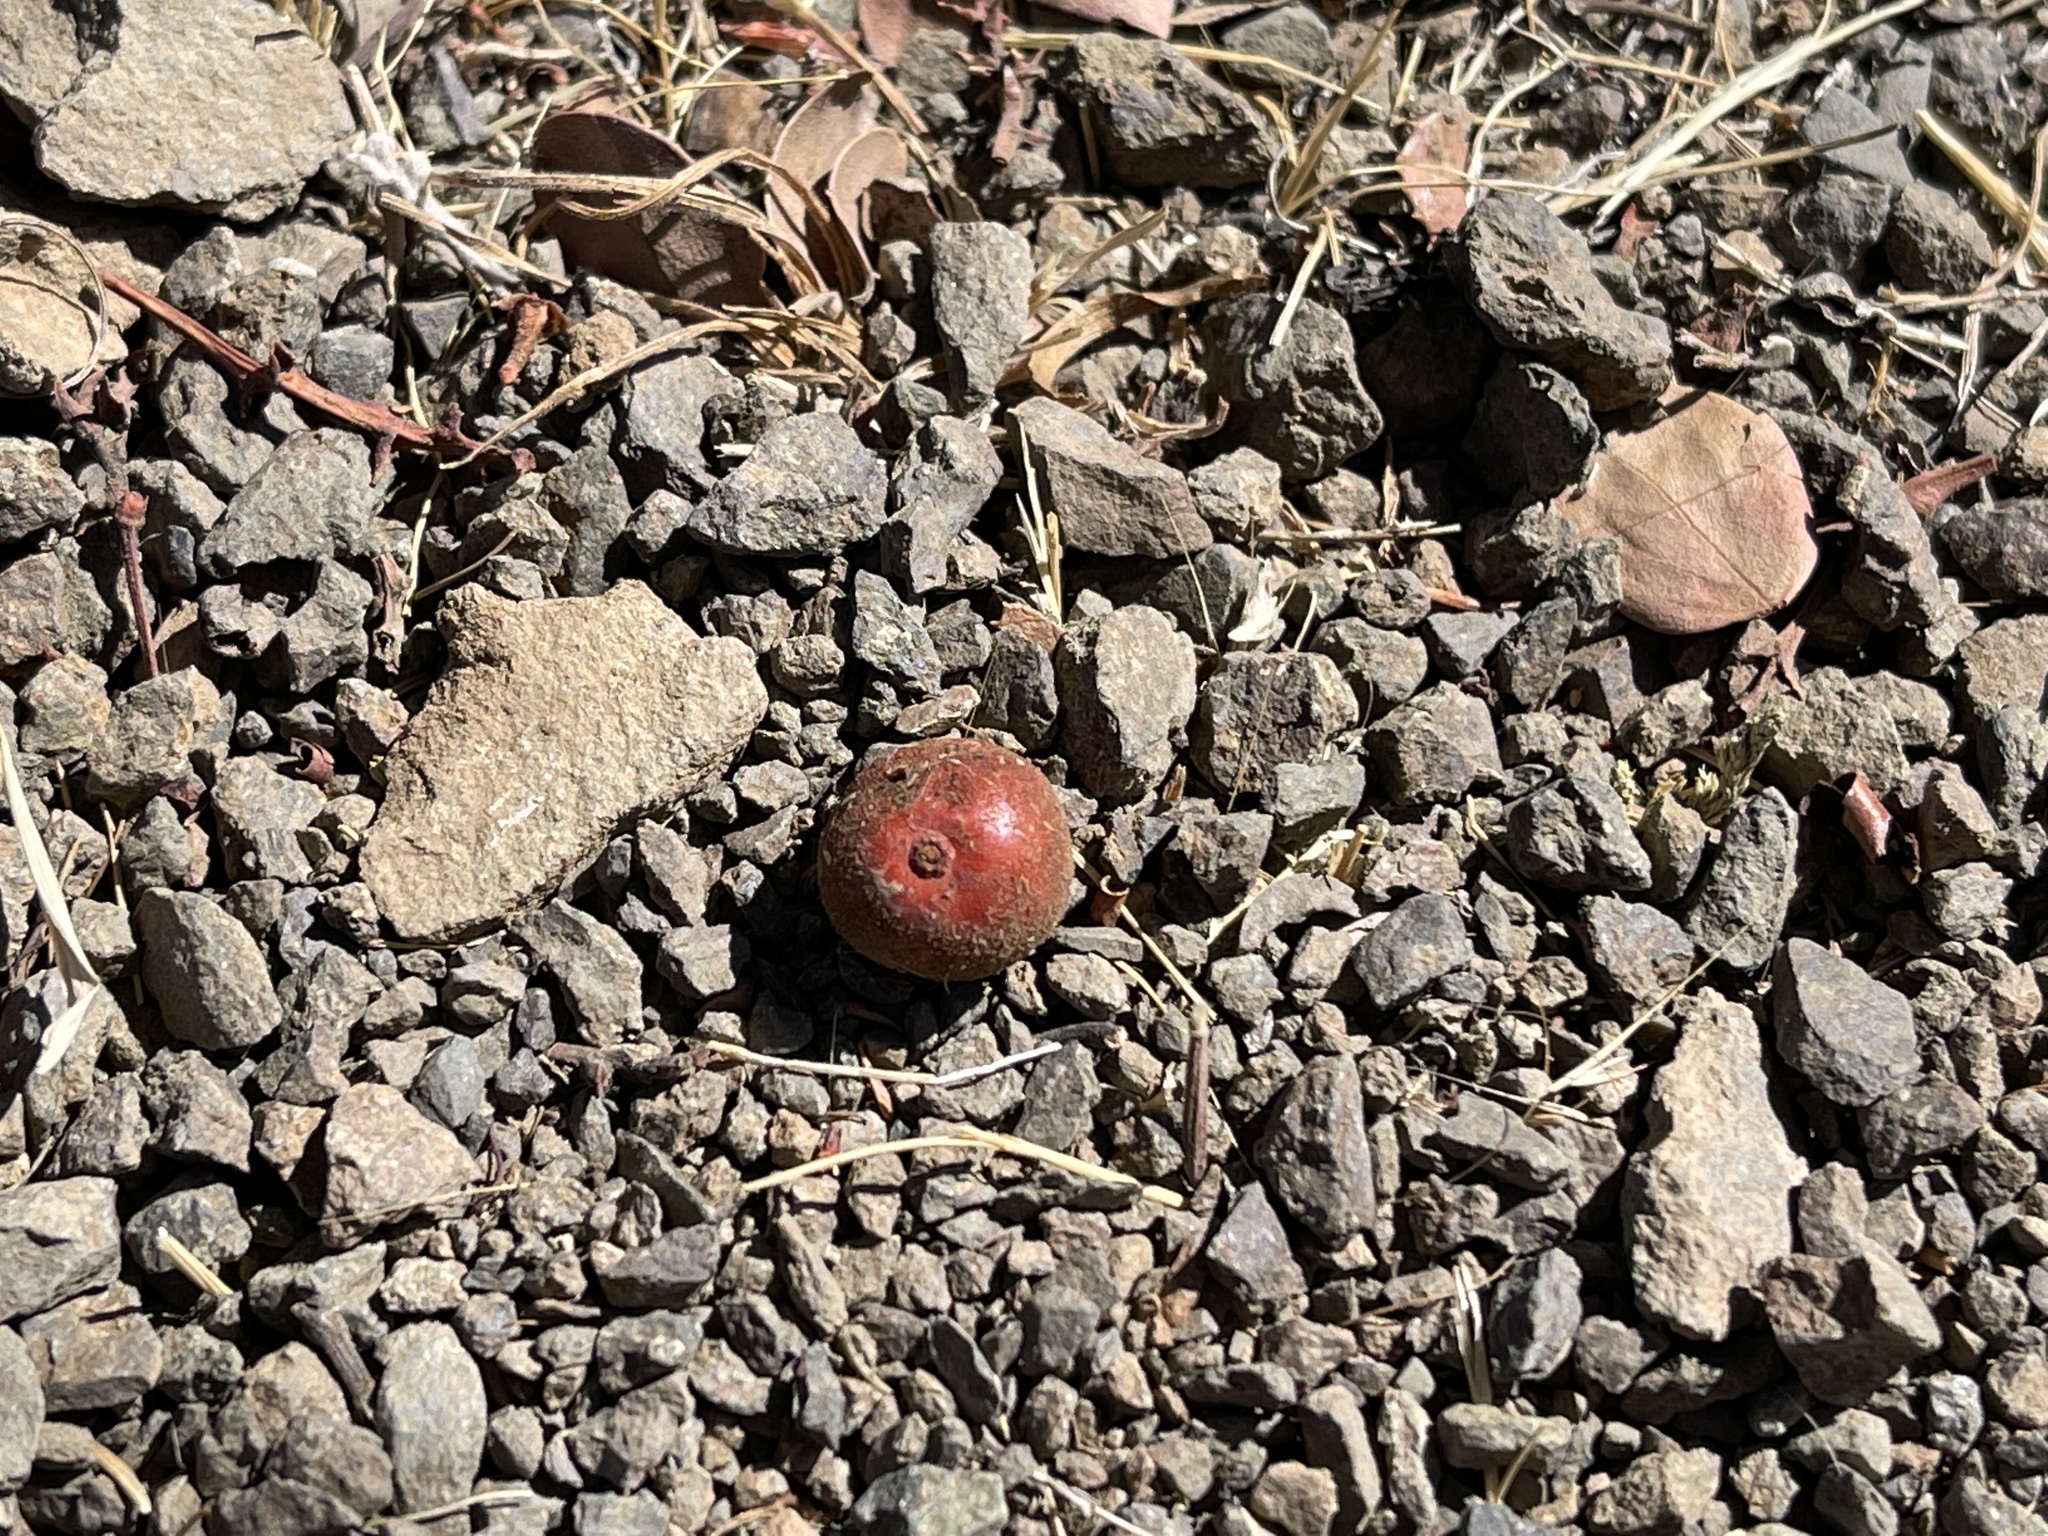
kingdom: Plantae
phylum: Tracheophyta
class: Magnoliopsida
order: Ericales
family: Ericaceae
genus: Arctostaphylos
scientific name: Arctostaphylos glauca
